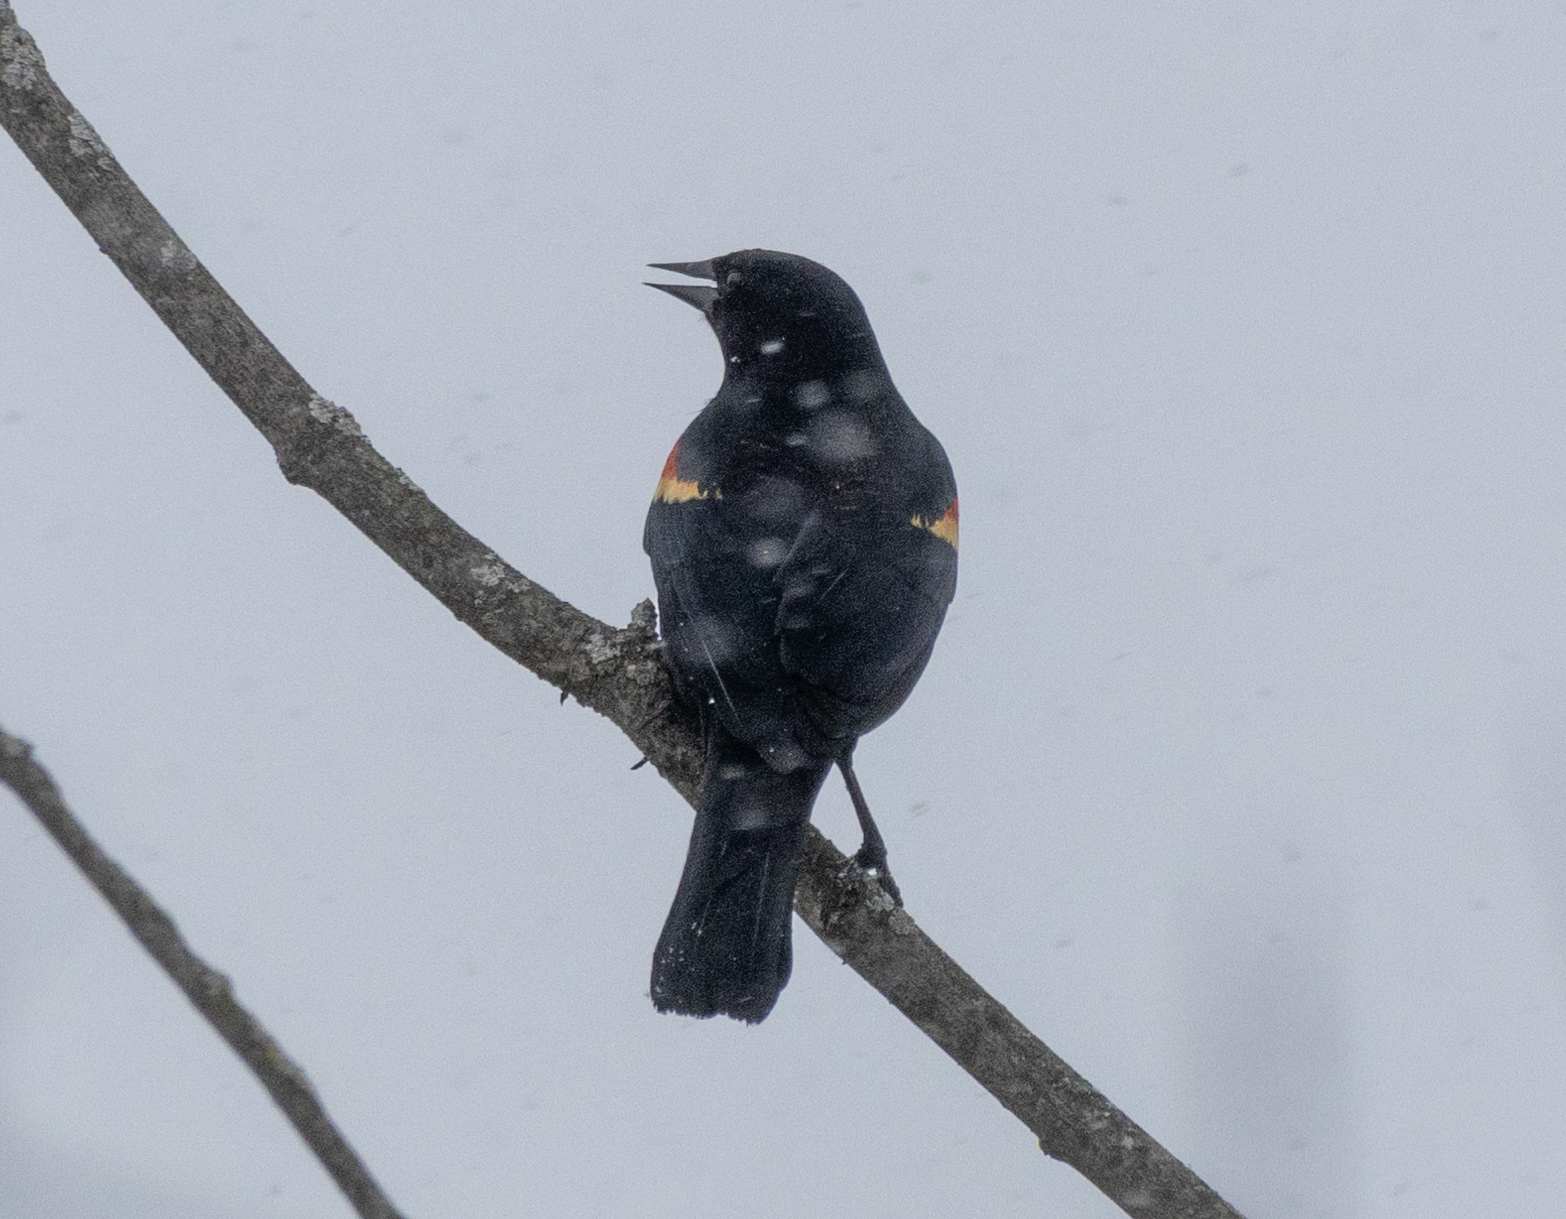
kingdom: Animalia
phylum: Chordata
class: Aves
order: Passeriformes
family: Icteridae
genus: Agelaius
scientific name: Agelaius phoeniceus
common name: Red-winged blackbird
